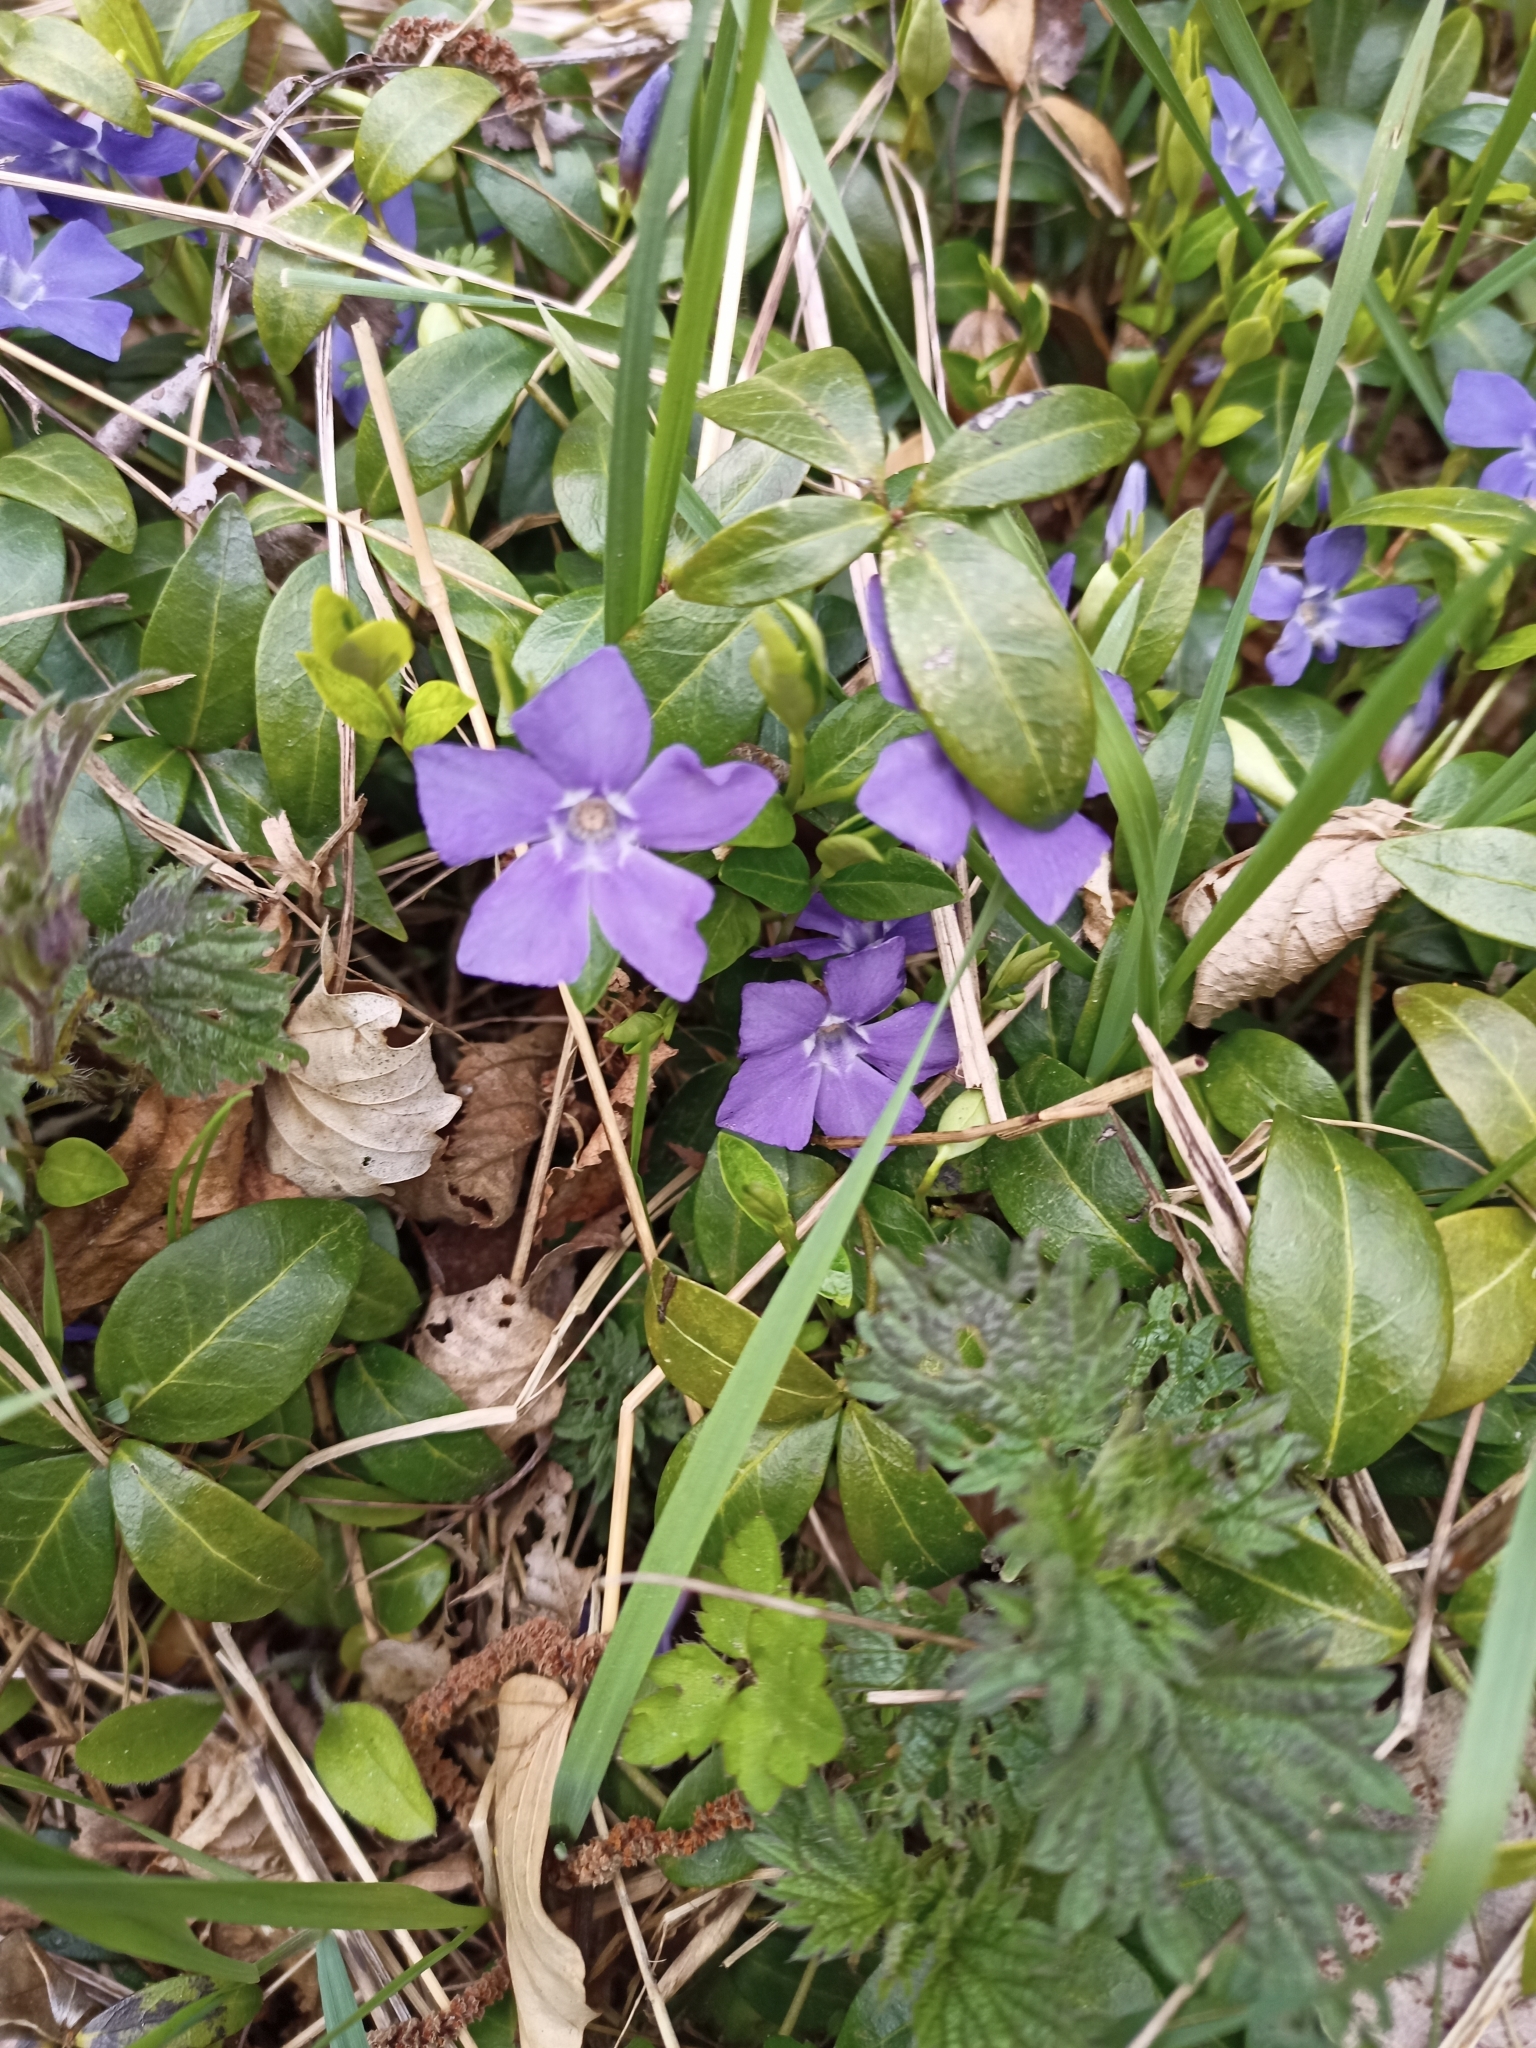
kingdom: Plantae
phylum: Tracheophyta
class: Magnoliopsida
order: Gentianales
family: Apocynaceae
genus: Vinca
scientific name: Vinca minor
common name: Lesser periwinkle
